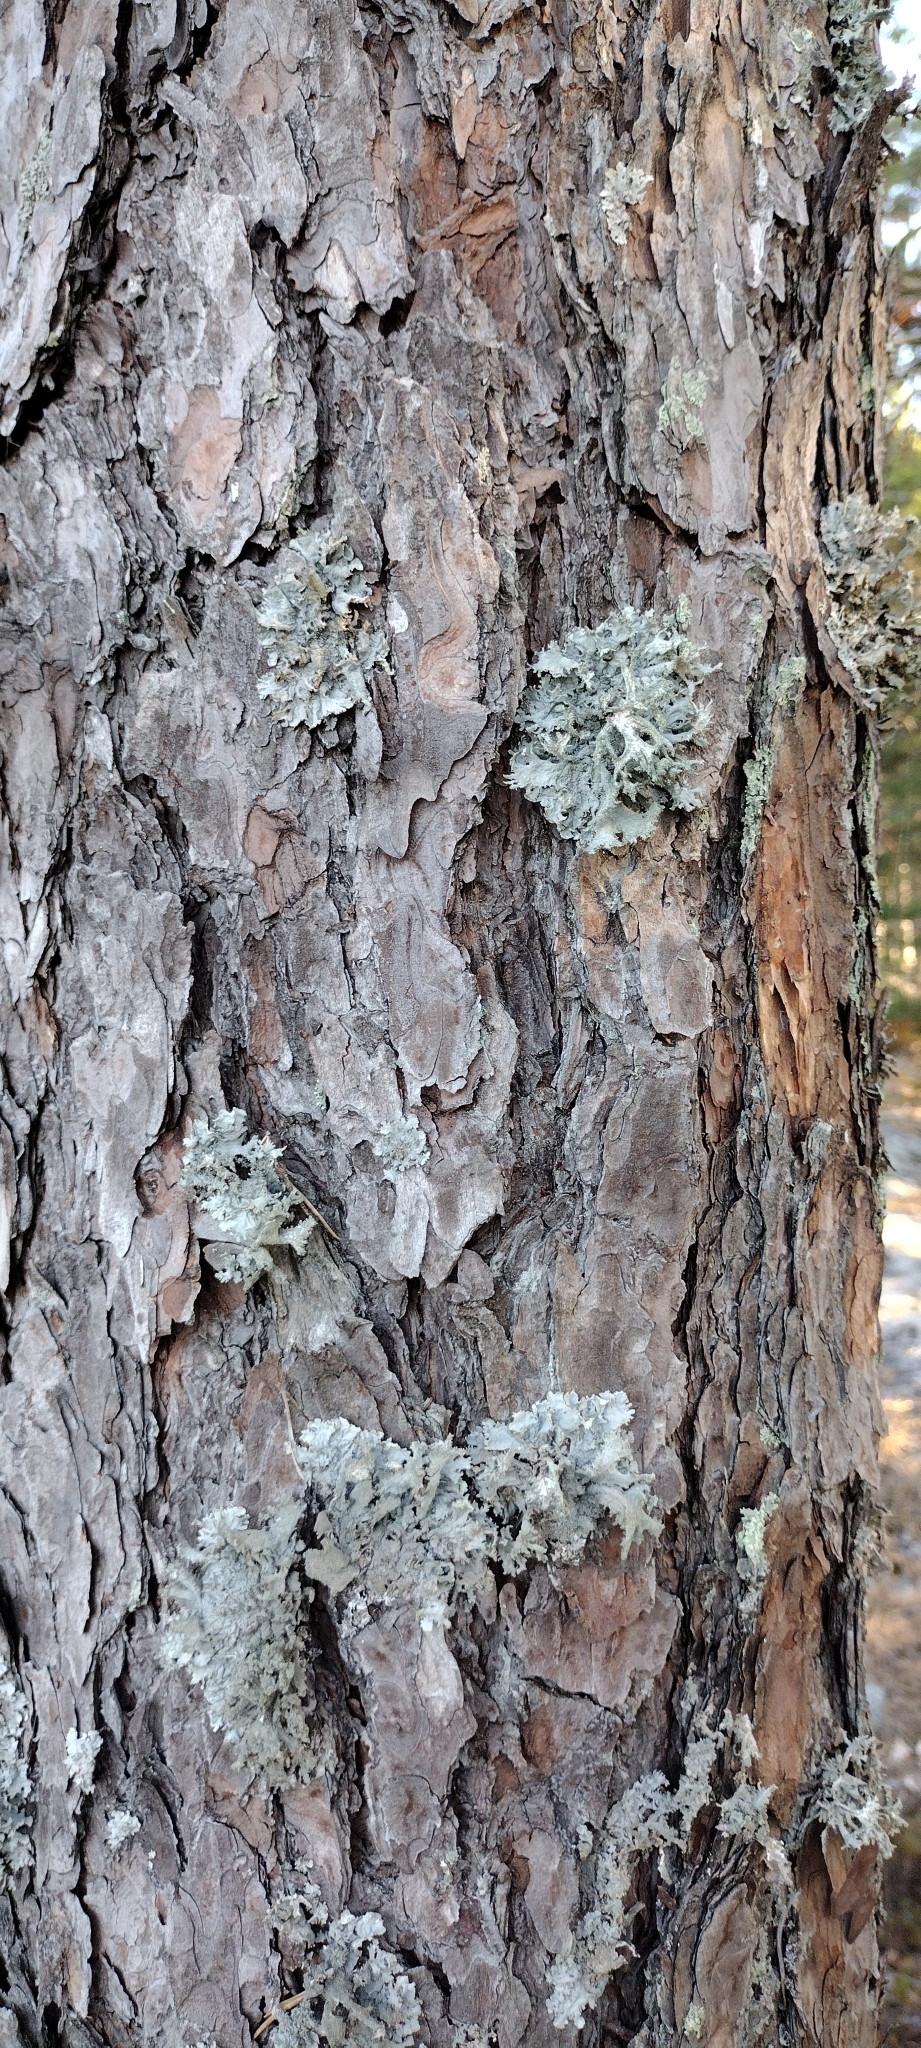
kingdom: Fungi
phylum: Ascomycota
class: Lecanoromycetes
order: Lecanorales
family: Parmeliaceae
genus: Pseudevernia
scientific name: Pseudevernia furfuracea
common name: Tree moss
